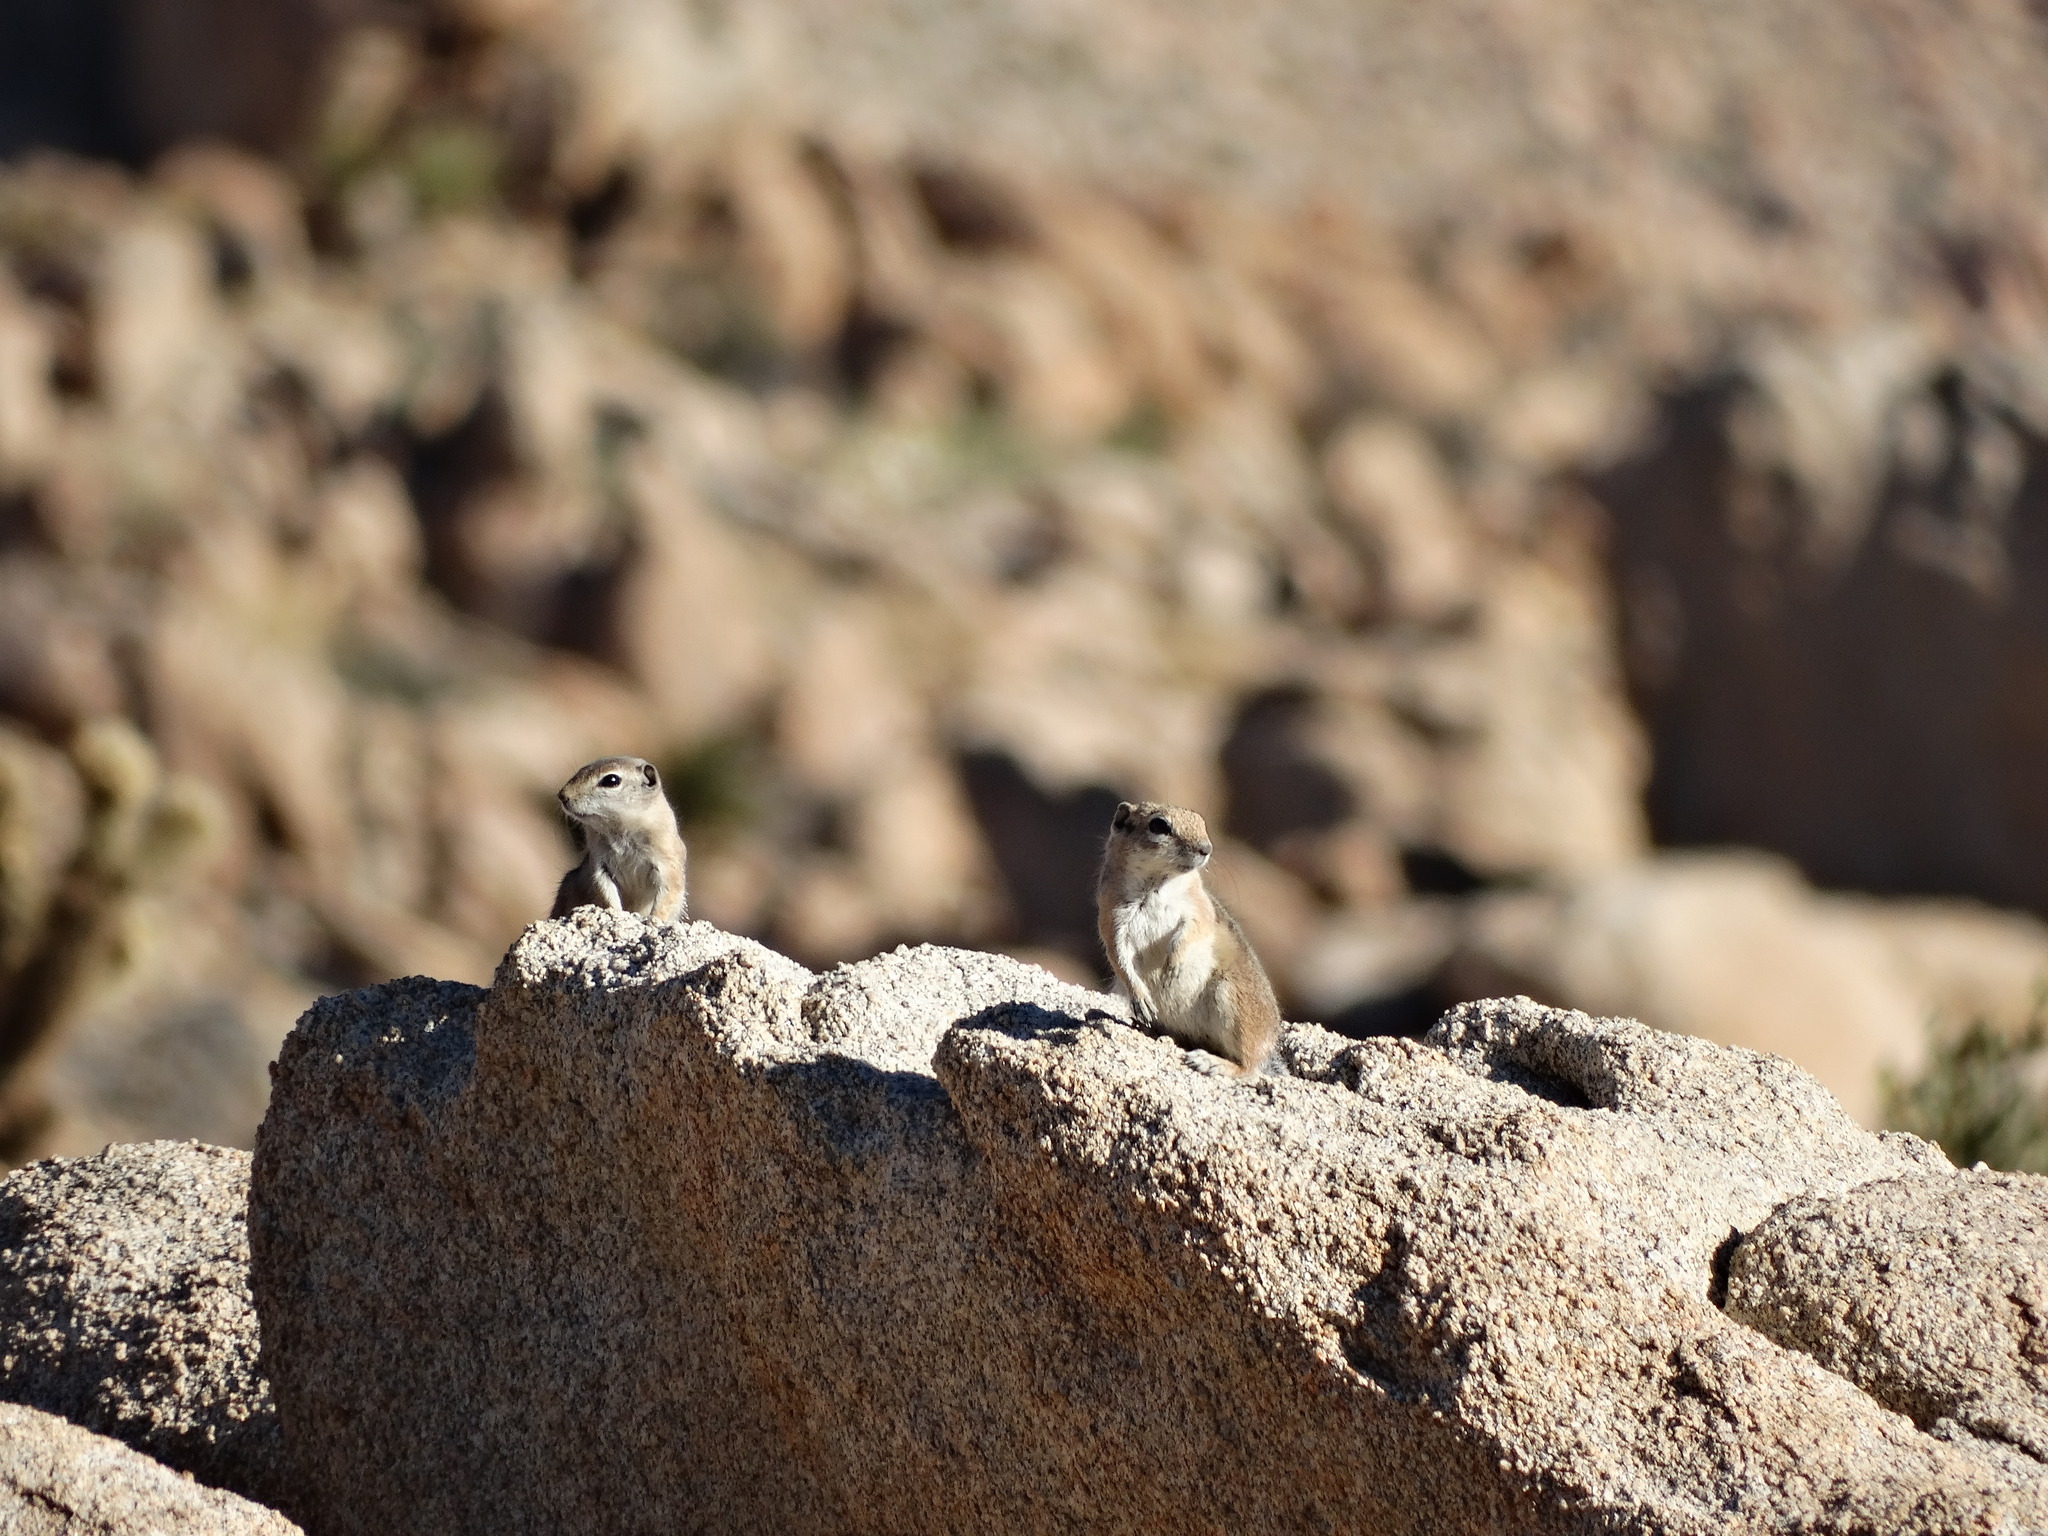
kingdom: Animalia
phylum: Chordata
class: Mammalia
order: Rodentia
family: Sciuridae
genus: Ammospermophilus
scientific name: Ammospermophilus leucurus
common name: White-tailed antelope squirrel
